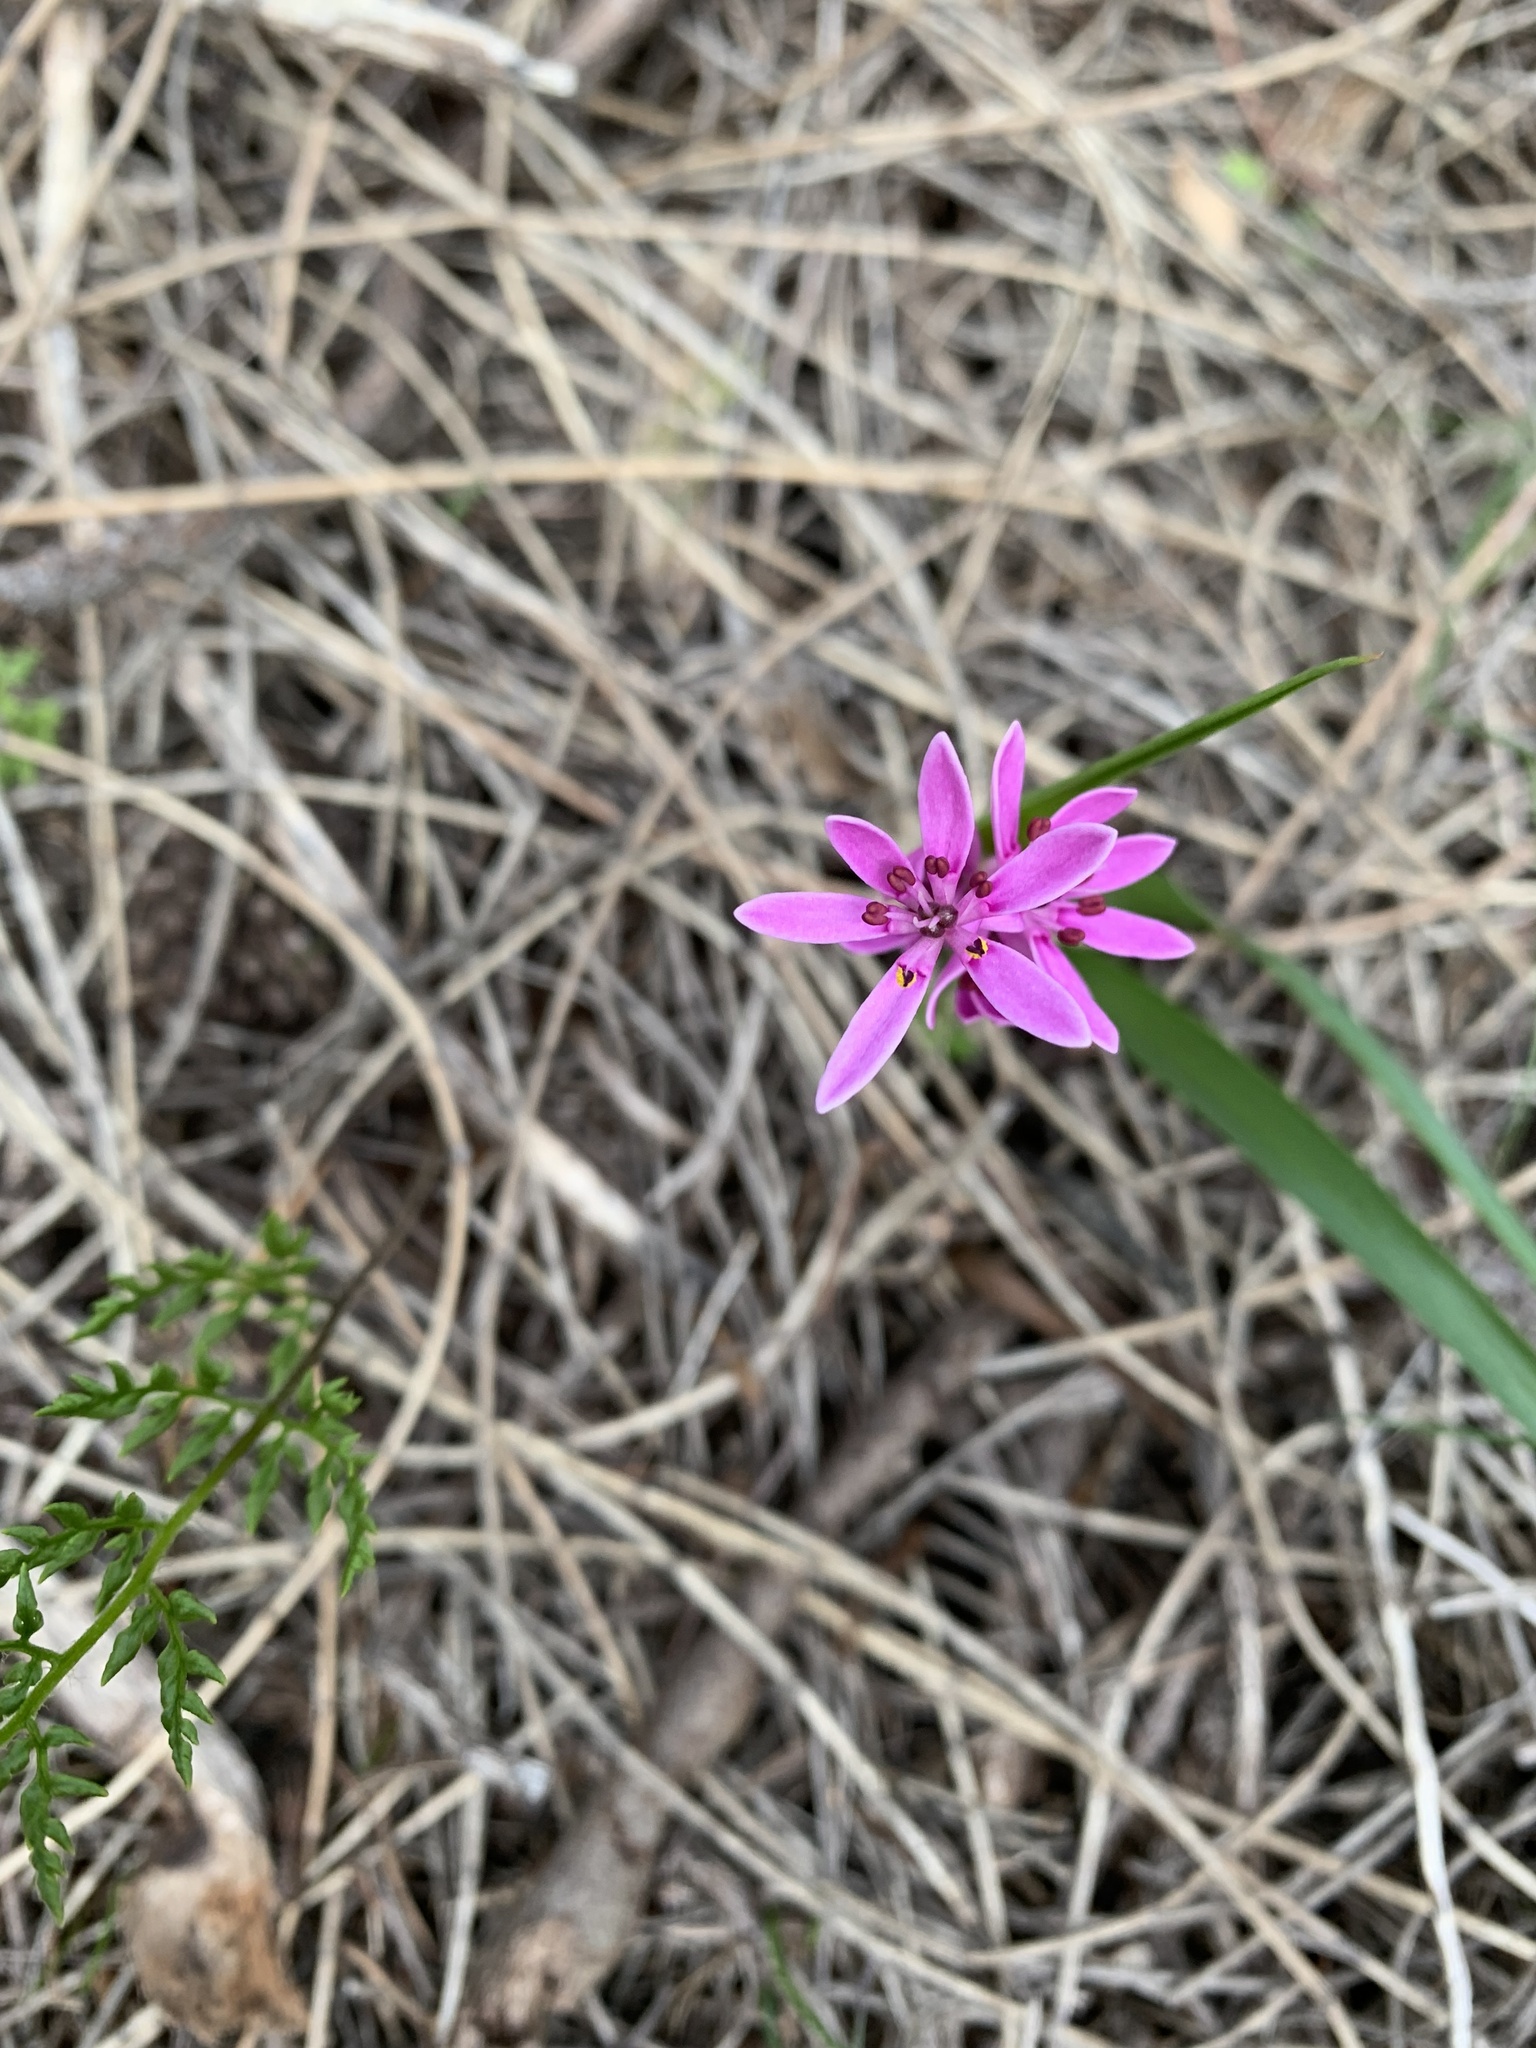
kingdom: Plantae
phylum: Tracheophyta
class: Liliopsida
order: Liliales
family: Colchicaceae
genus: Wurmbea
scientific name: Wurmbea australis
